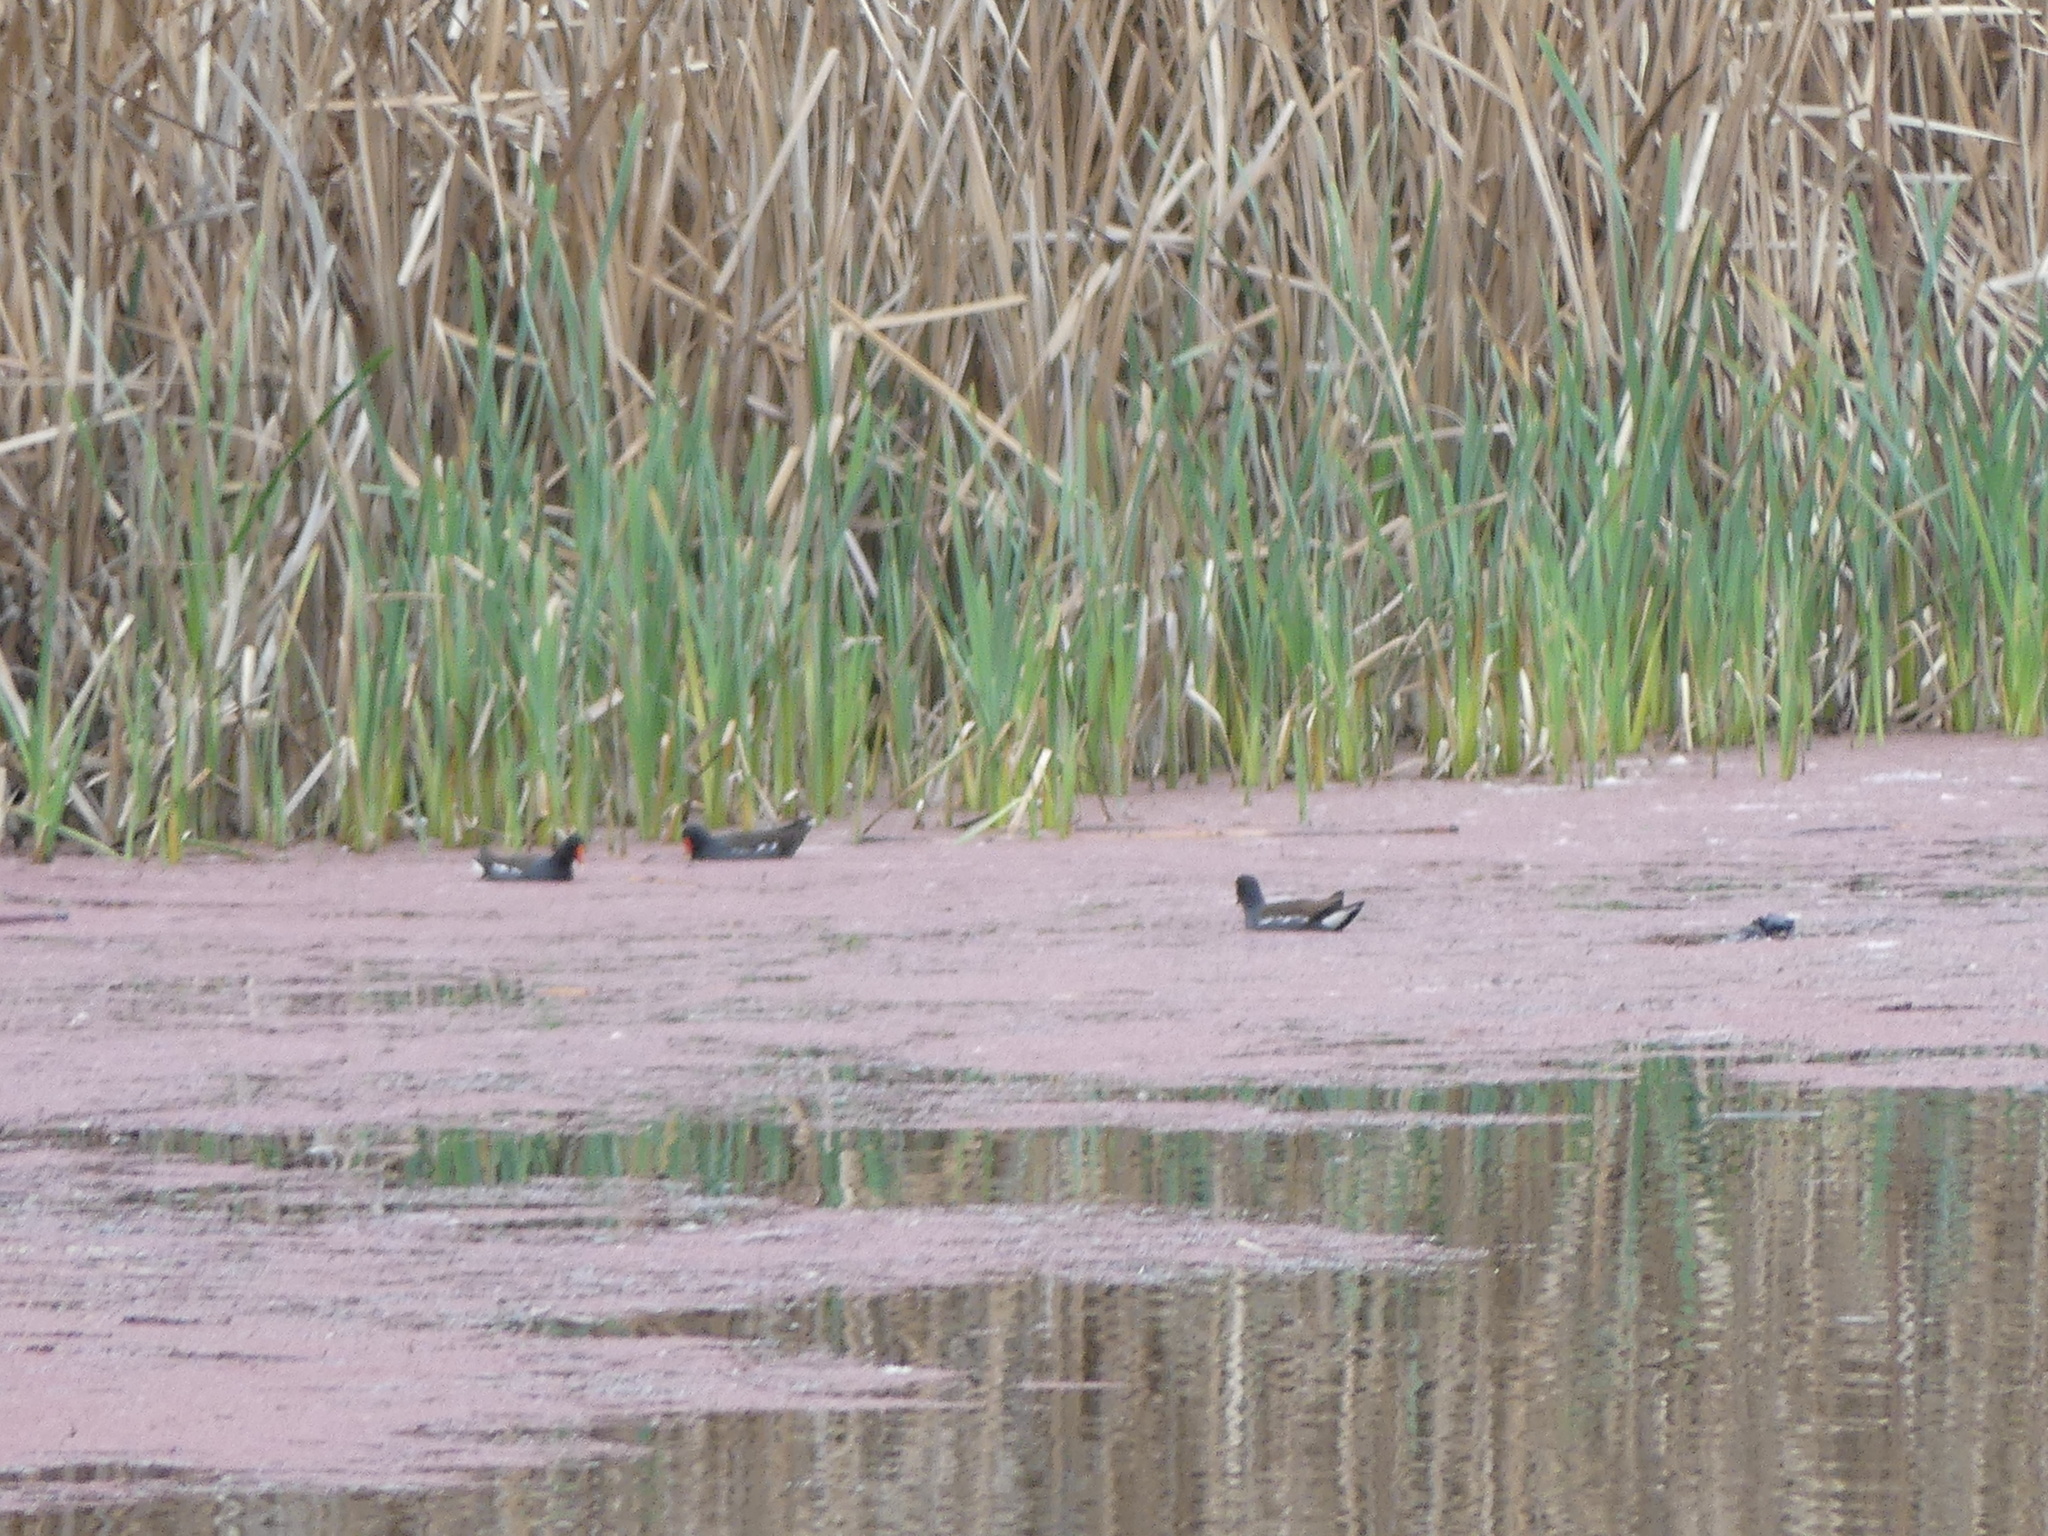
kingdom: Animalia
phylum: Chordata
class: Aves
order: Gruiformes
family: Rallidae
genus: Gallinula
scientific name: Gallinula chloropus
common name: Common moorhen
